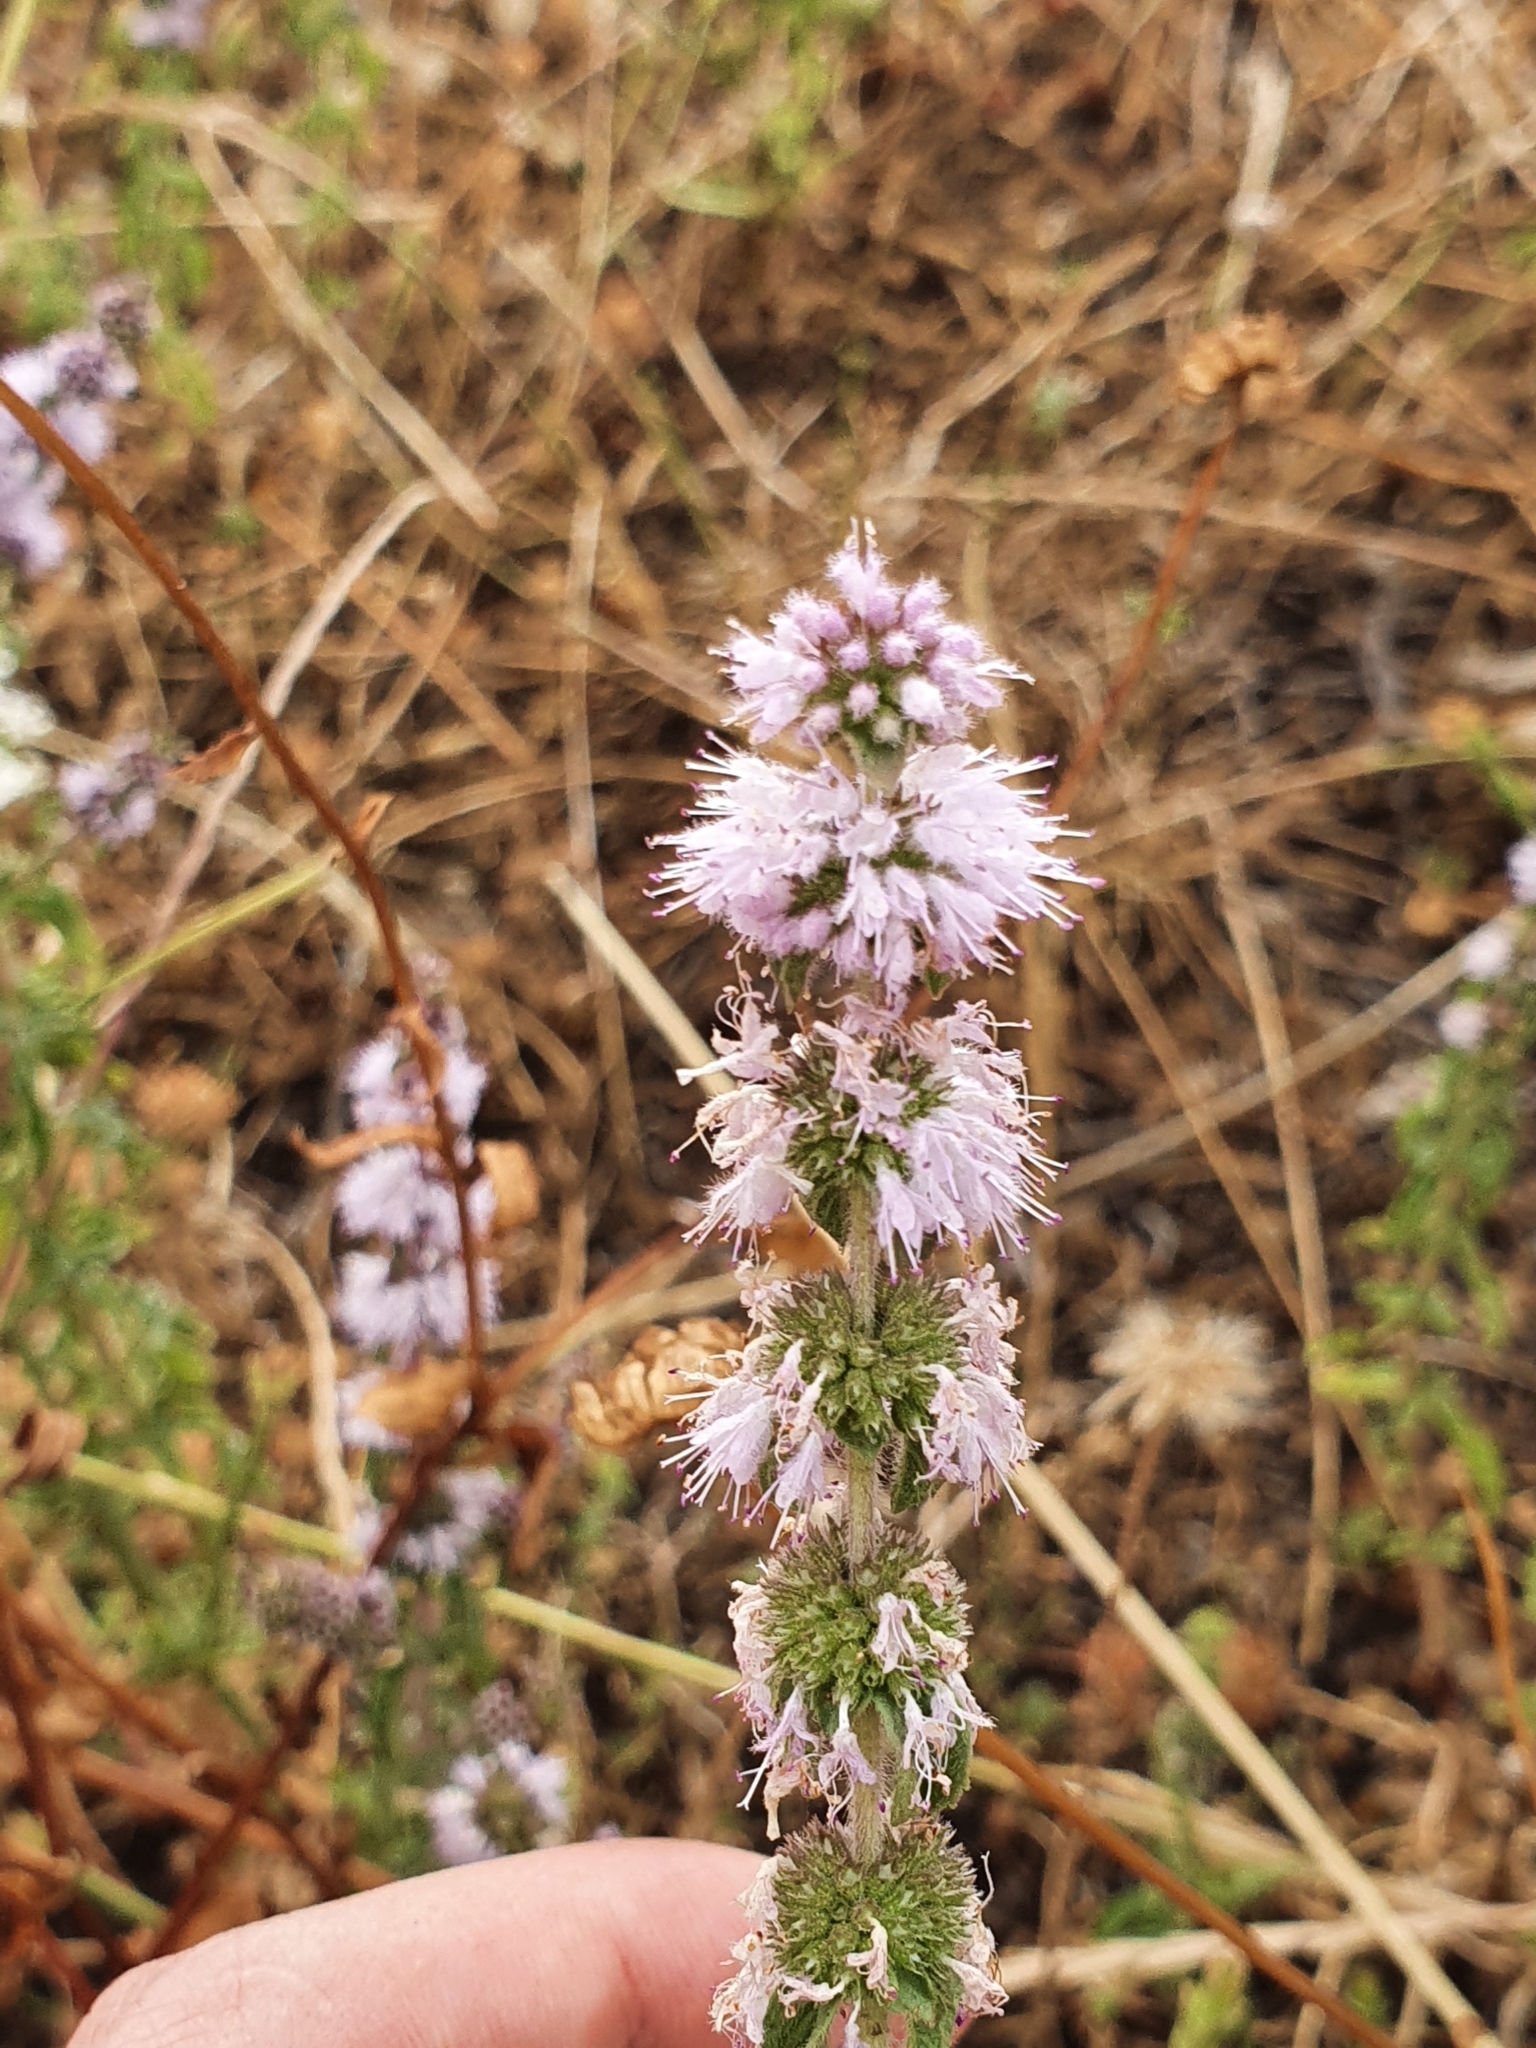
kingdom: Plantae
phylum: Tracheophyta
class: Magnoliopsida
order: Lamiales
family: Lamiaceae
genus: Mentha
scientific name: Mentha pulegium
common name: Pennyroyal
